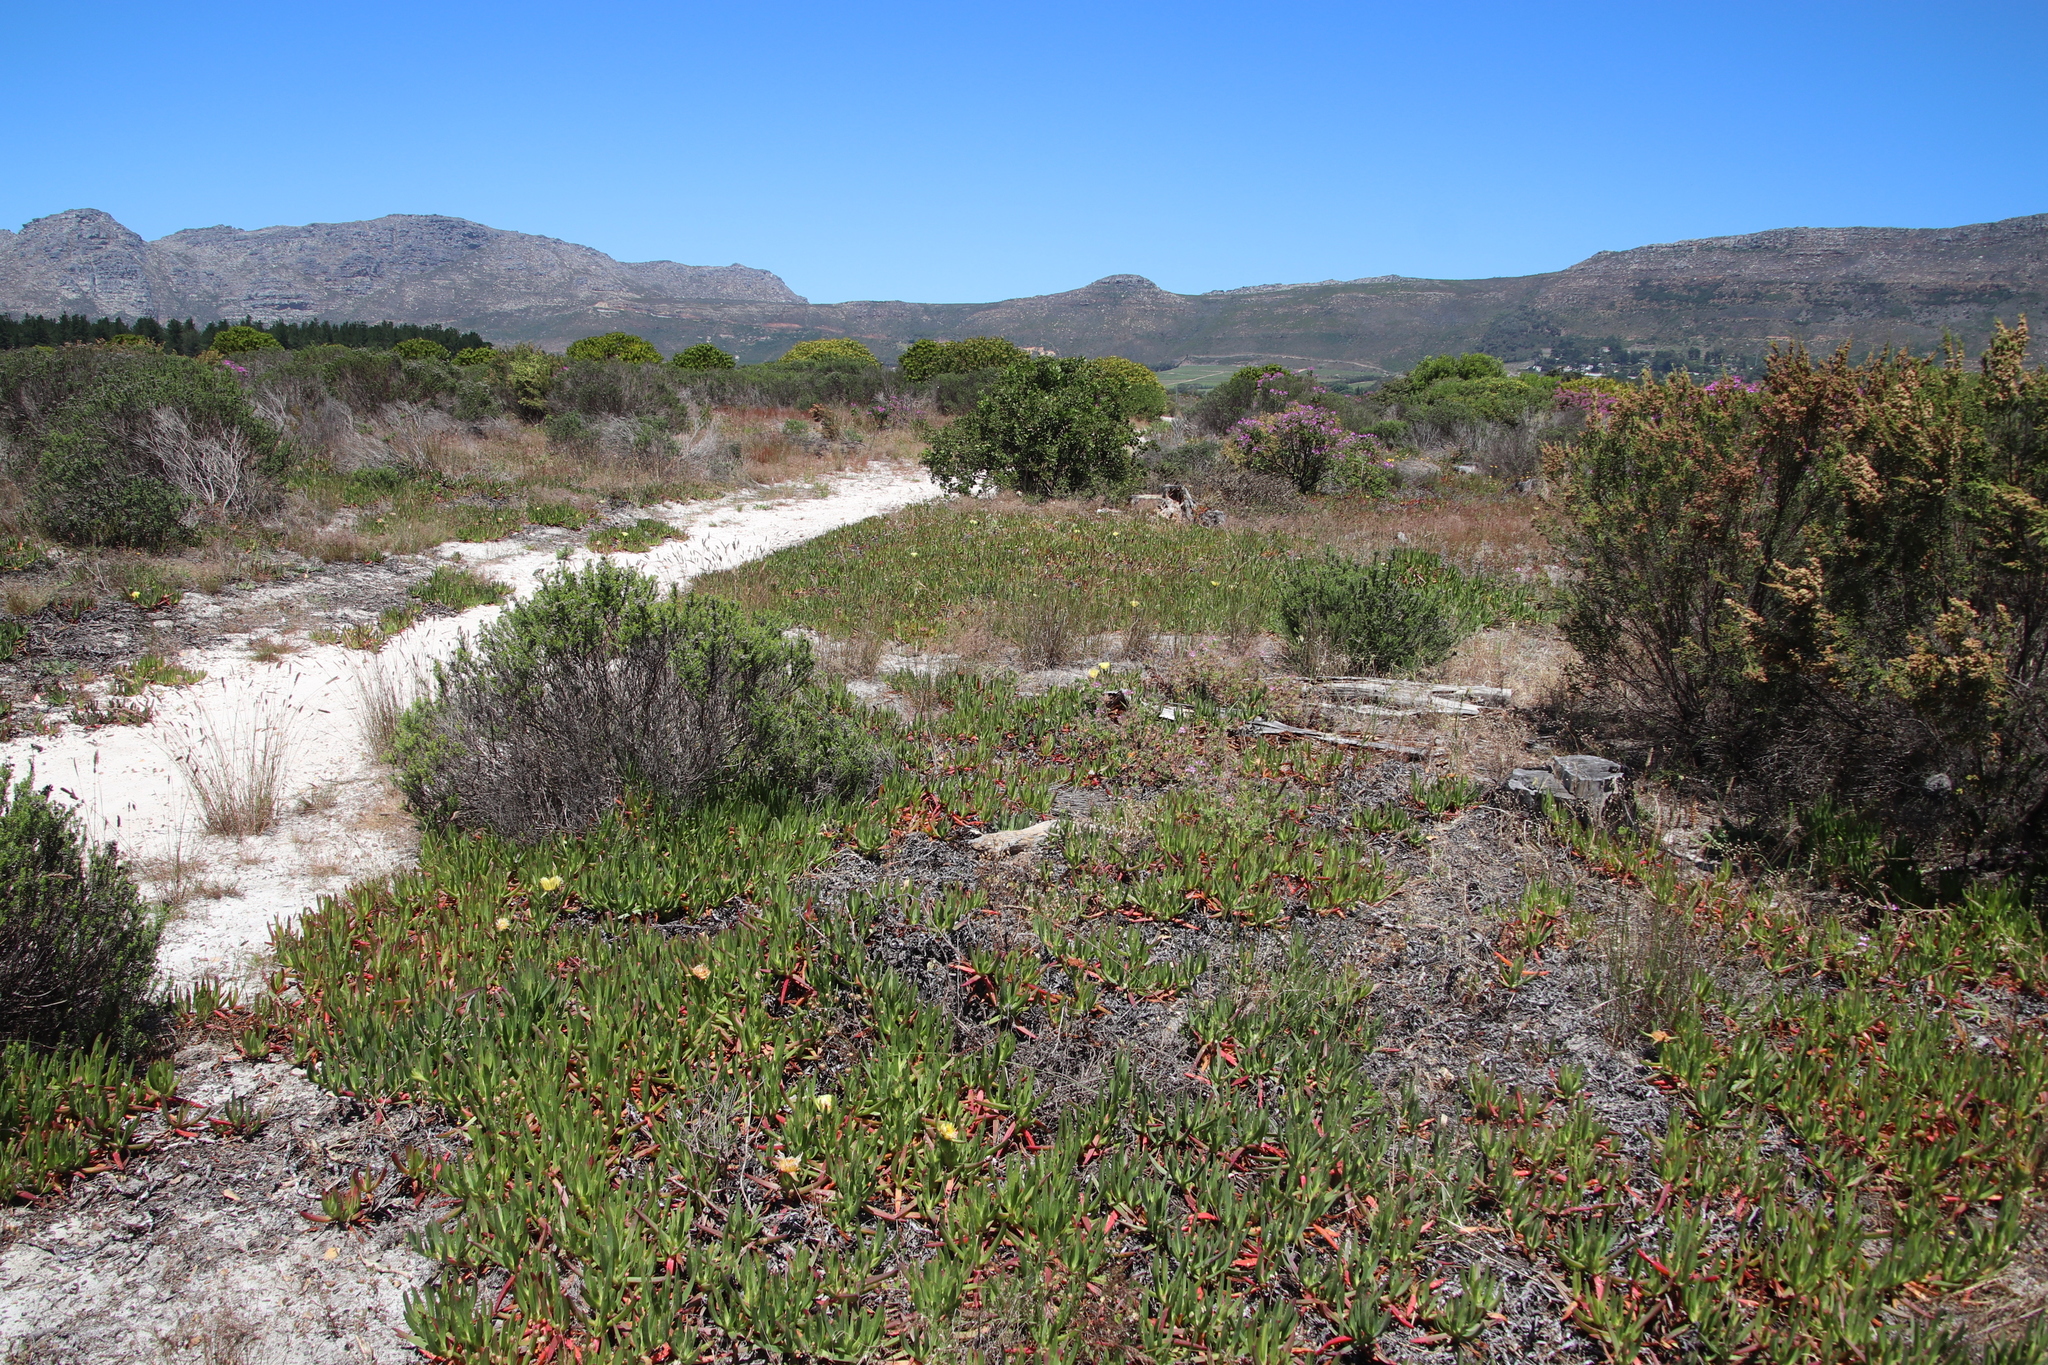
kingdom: Plantae
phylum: Tracheophyta
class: Magnoliopsida
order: Caryophyllales
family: Aizoaceae
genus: Carpobrotus
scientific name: Carpobrotus edulis
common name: Hottentot-fig
